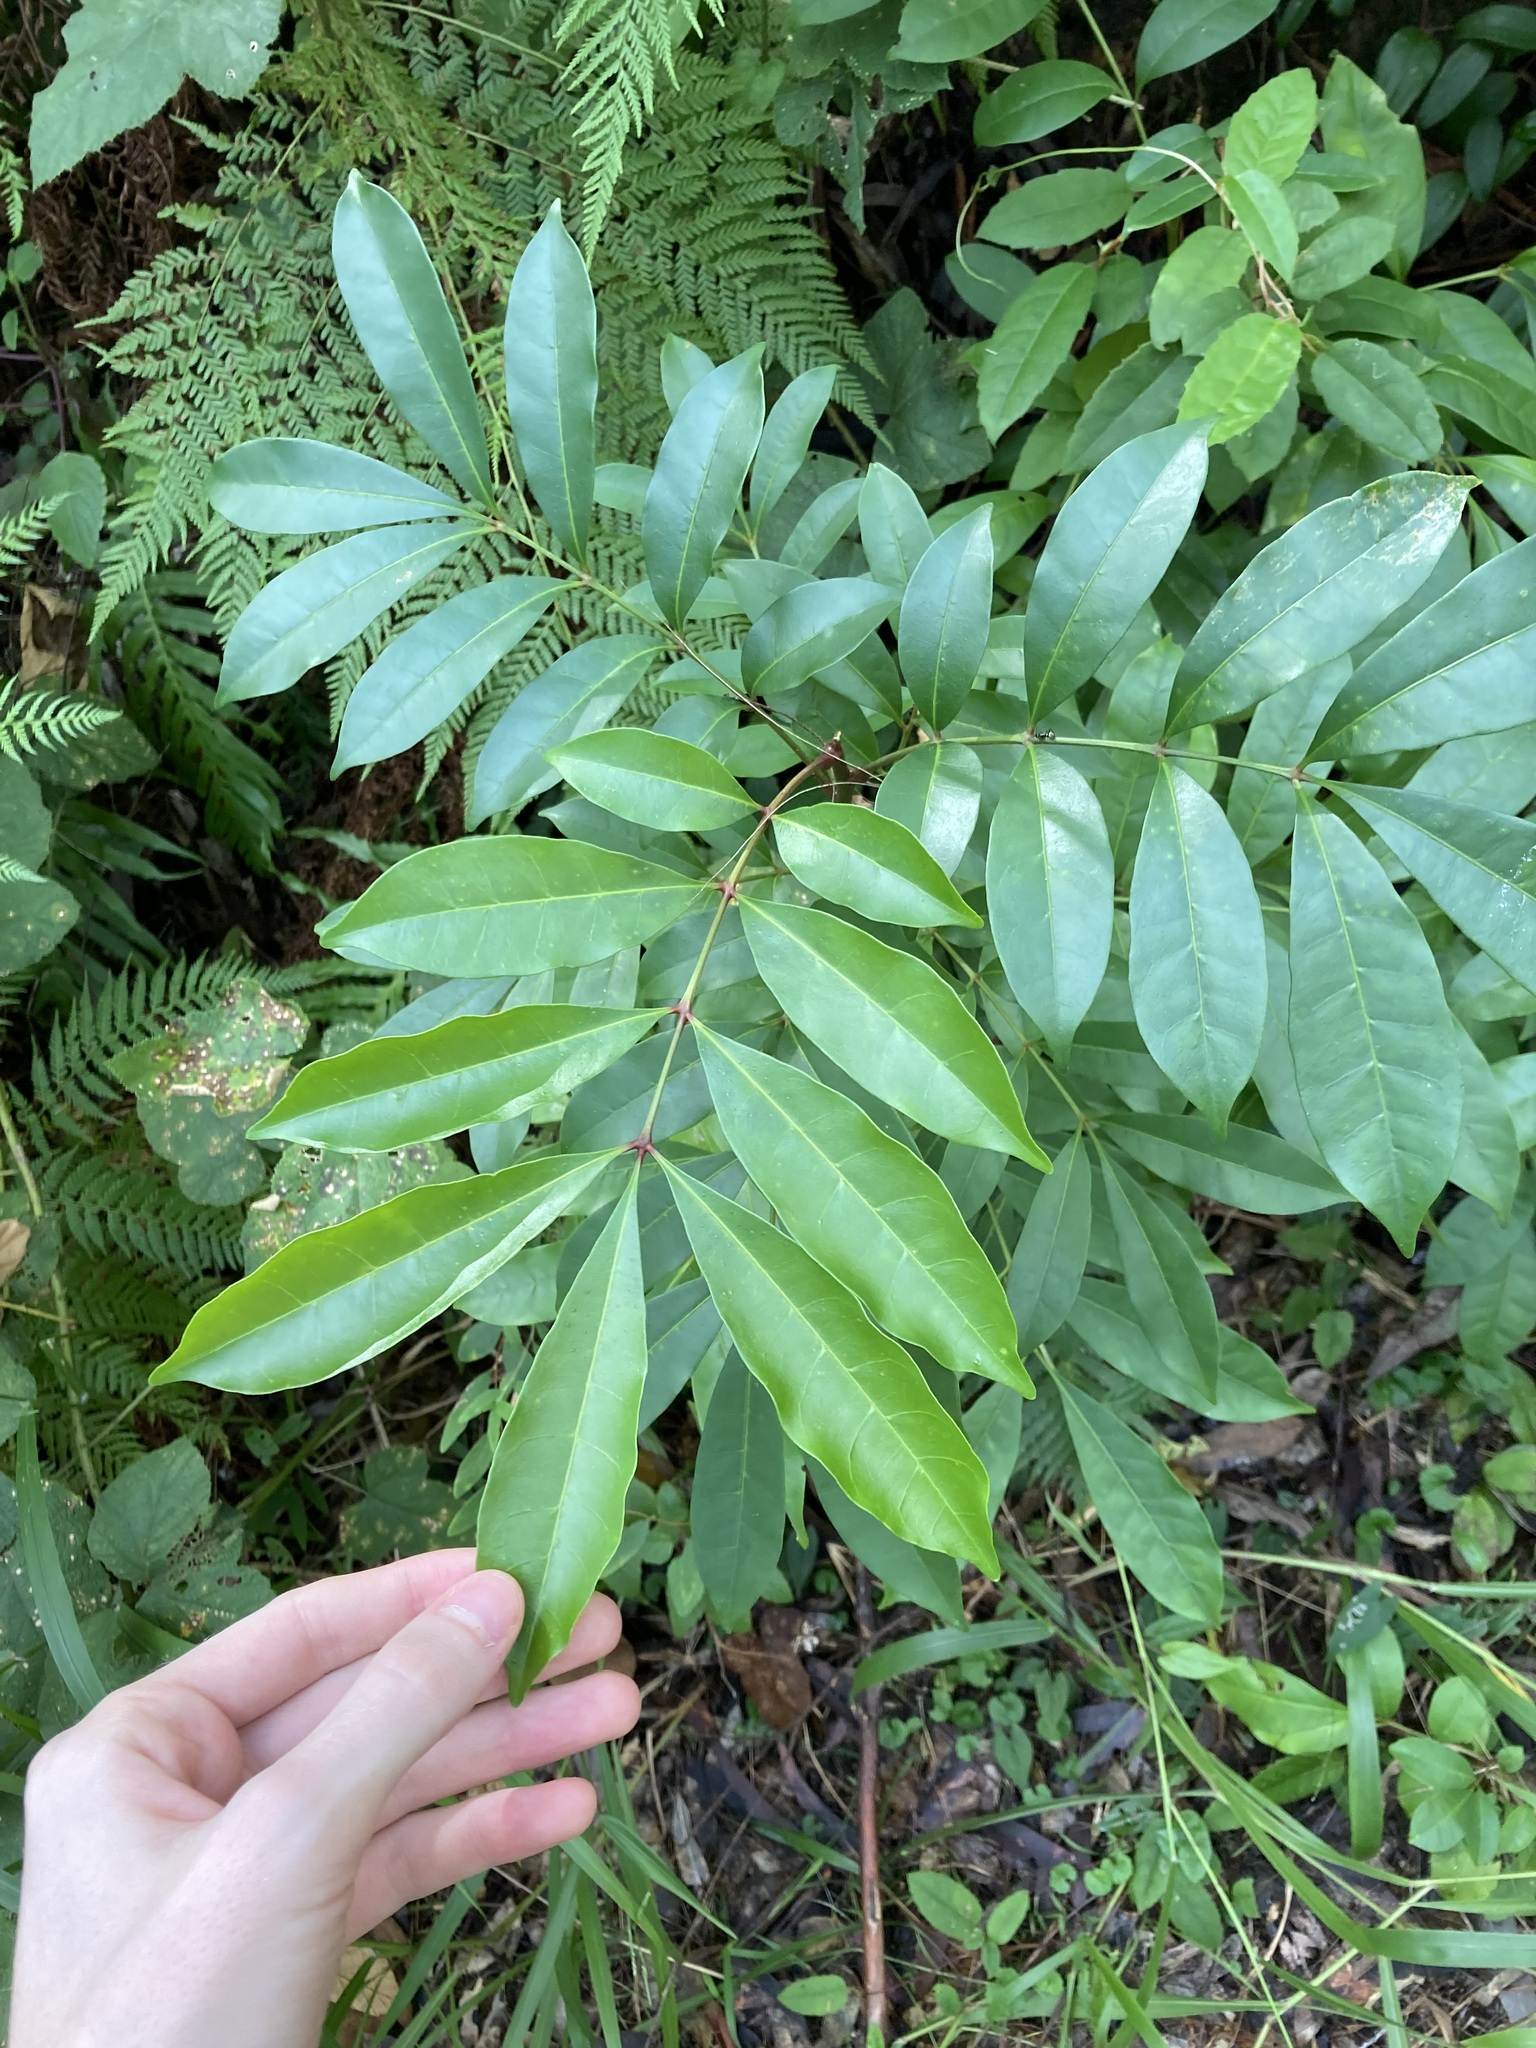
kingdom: Plantae
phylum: Tracheophyta
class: Magnoliopsida
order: Sapindales
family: Meliaceae
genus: Synoum
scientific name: Synoum glandulosum
